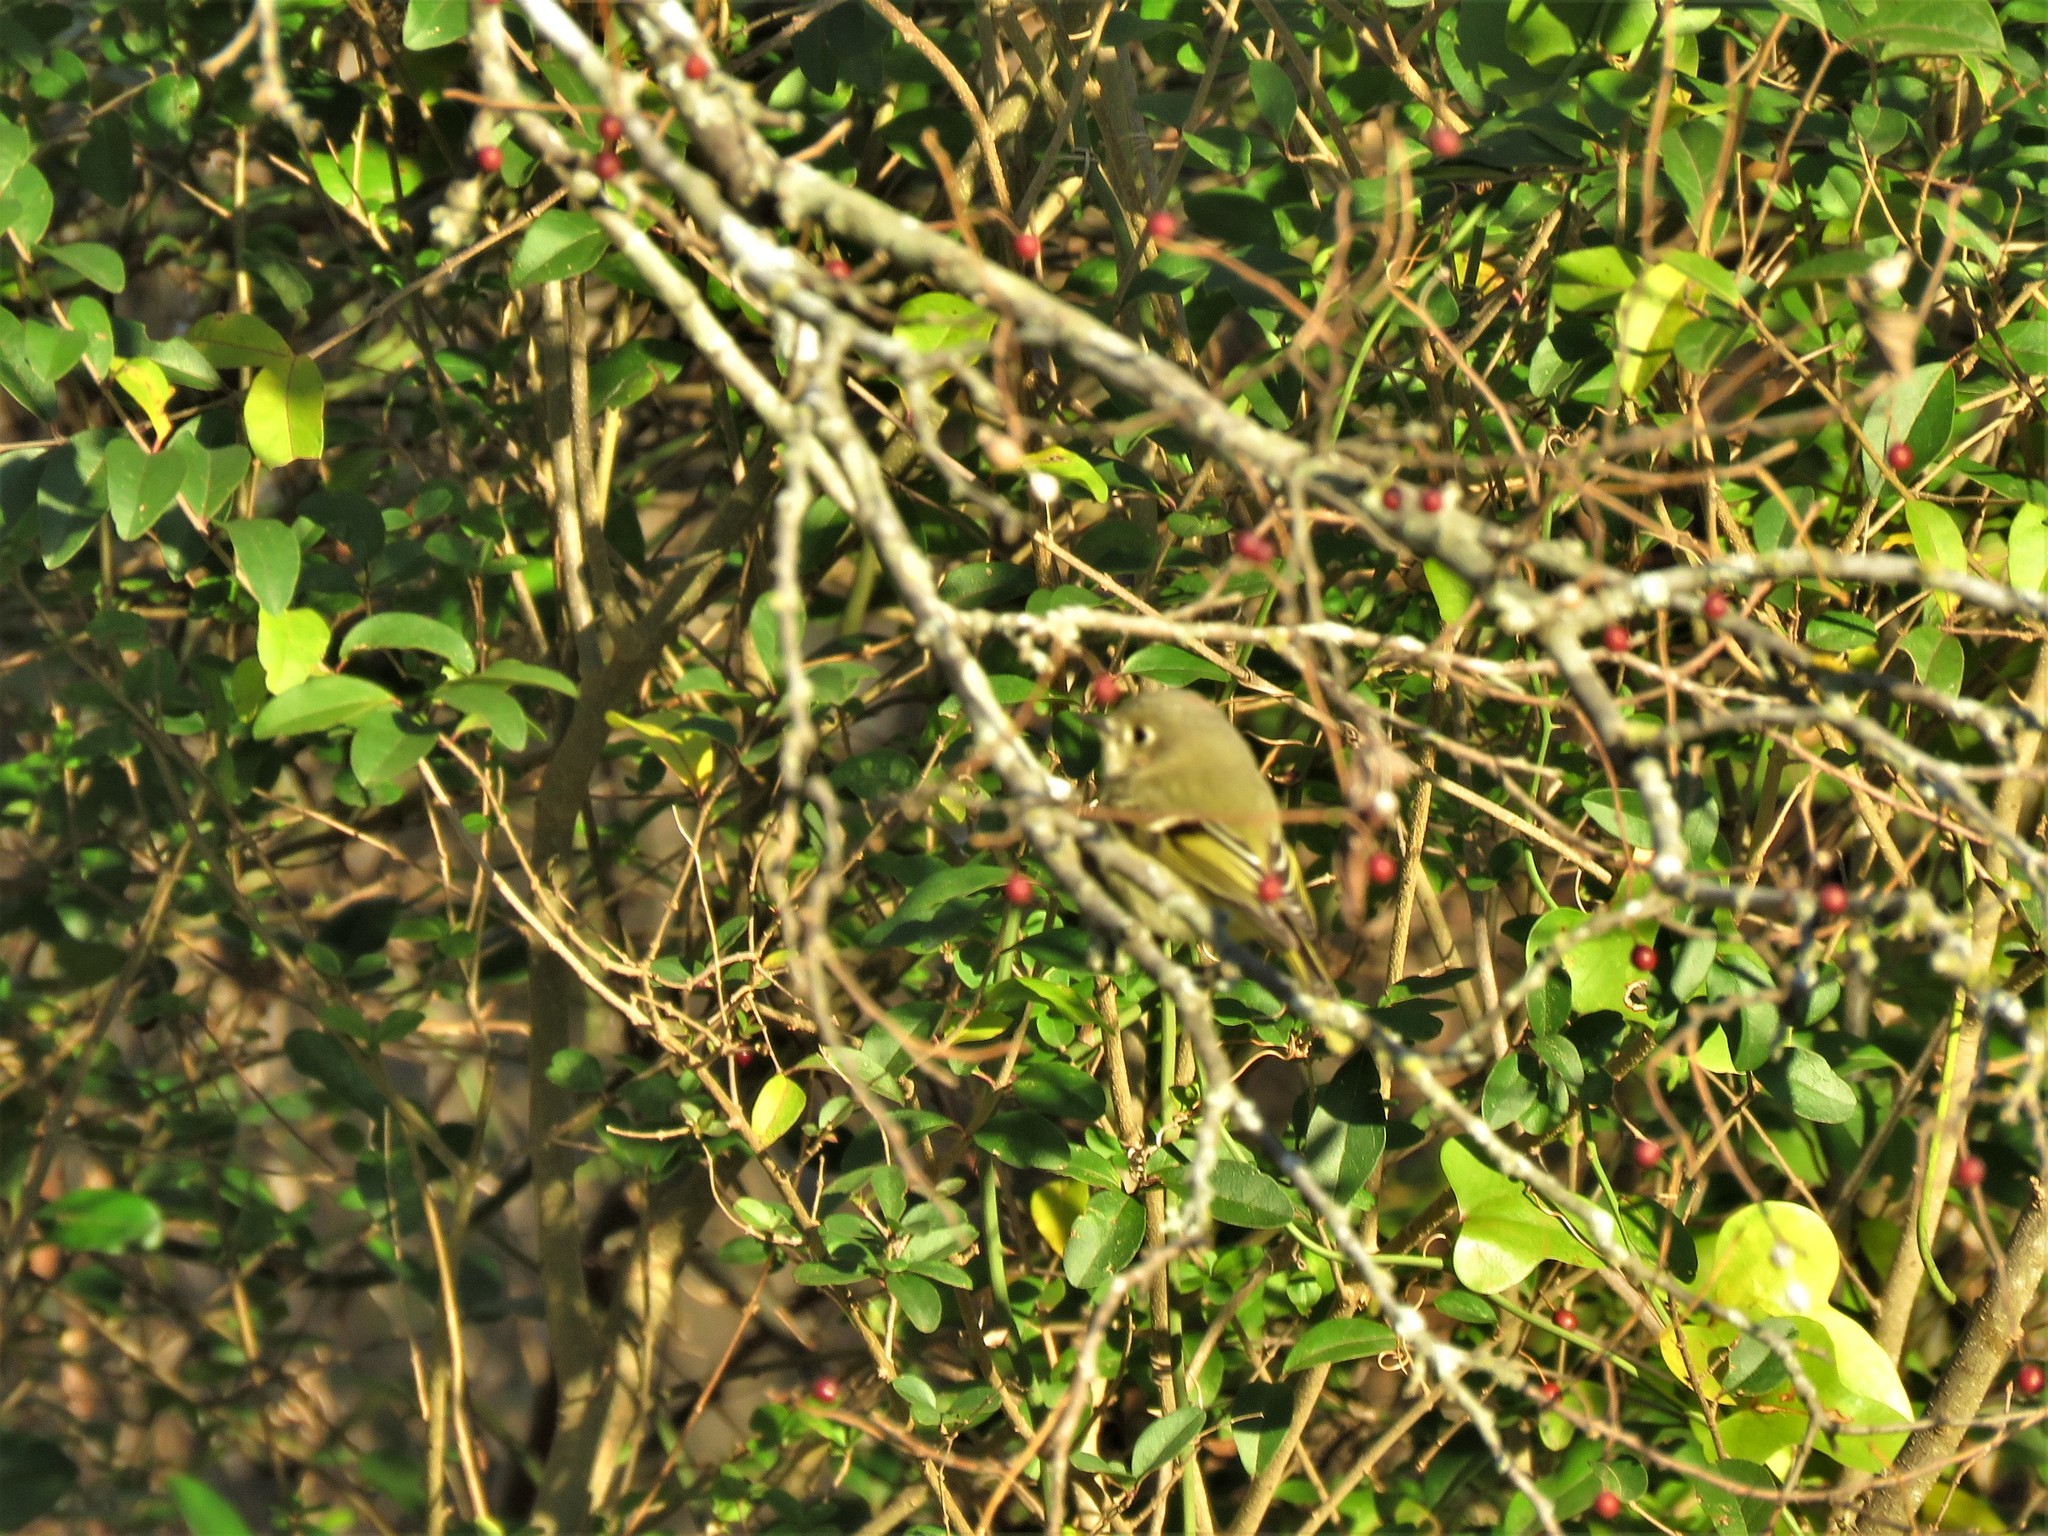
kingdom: Animalia
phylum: Chordata
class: Aves
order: Passeriformes
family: Regulidae
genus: Regulus
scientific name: Regulus calendula
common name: Ruby-crowned kinglet
